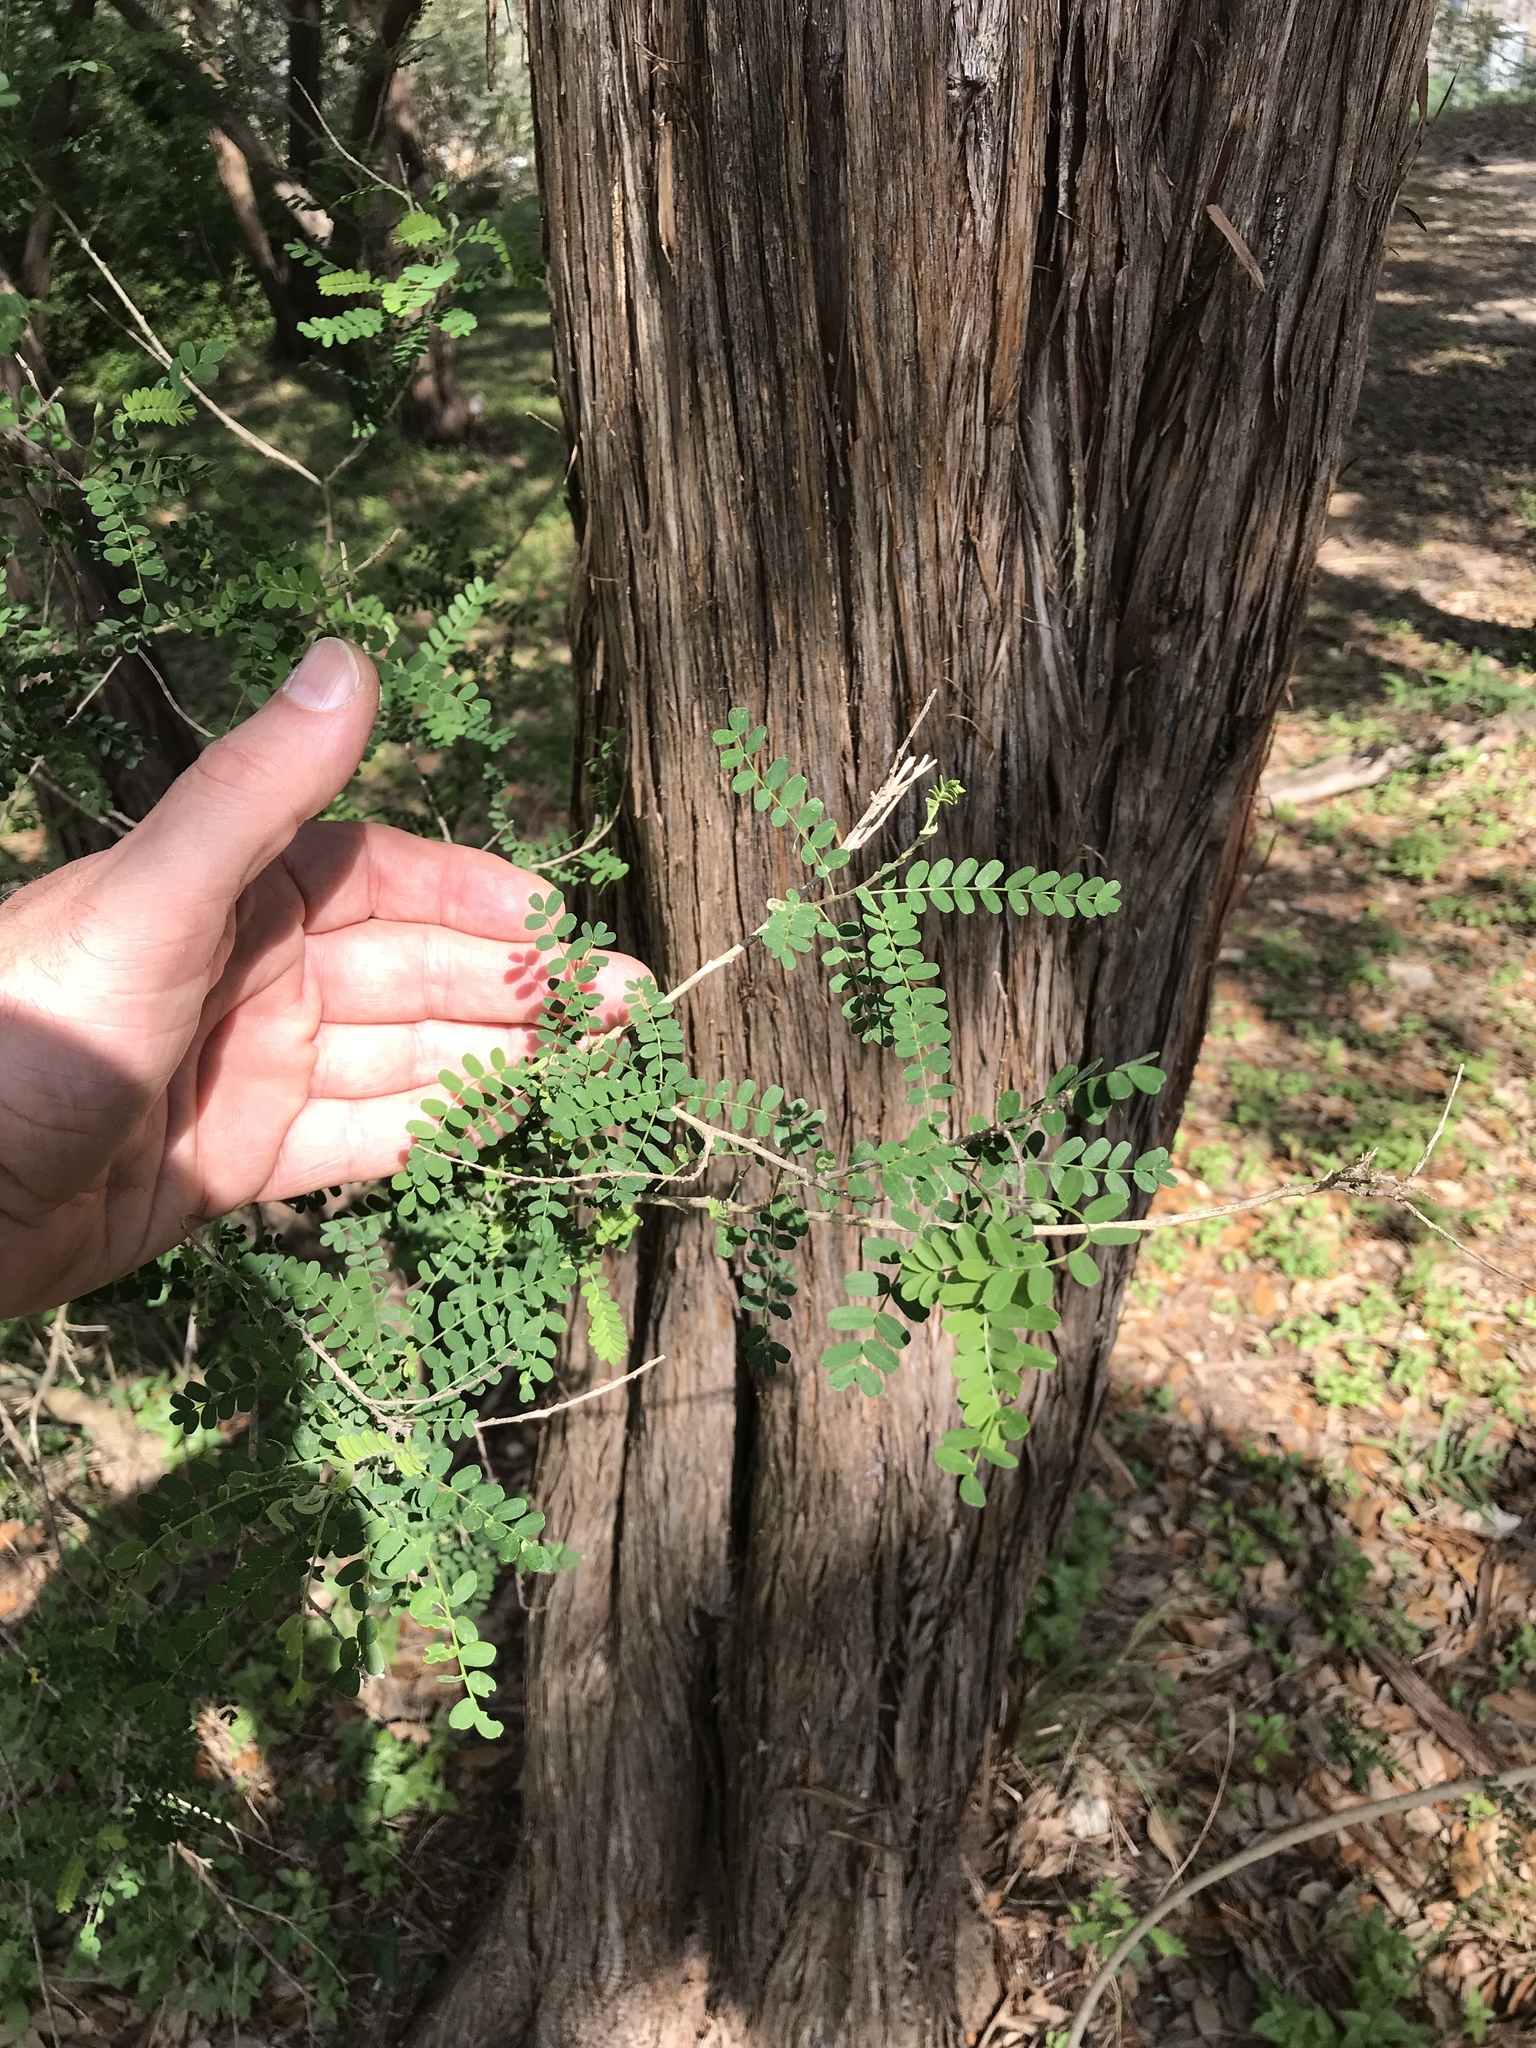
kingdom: Plantae
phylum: Tracheophyta
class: Magnoliopsida
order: Fabales
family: Fabaceae
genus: Eysenhardtia
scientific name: Eysenhardtia texana
